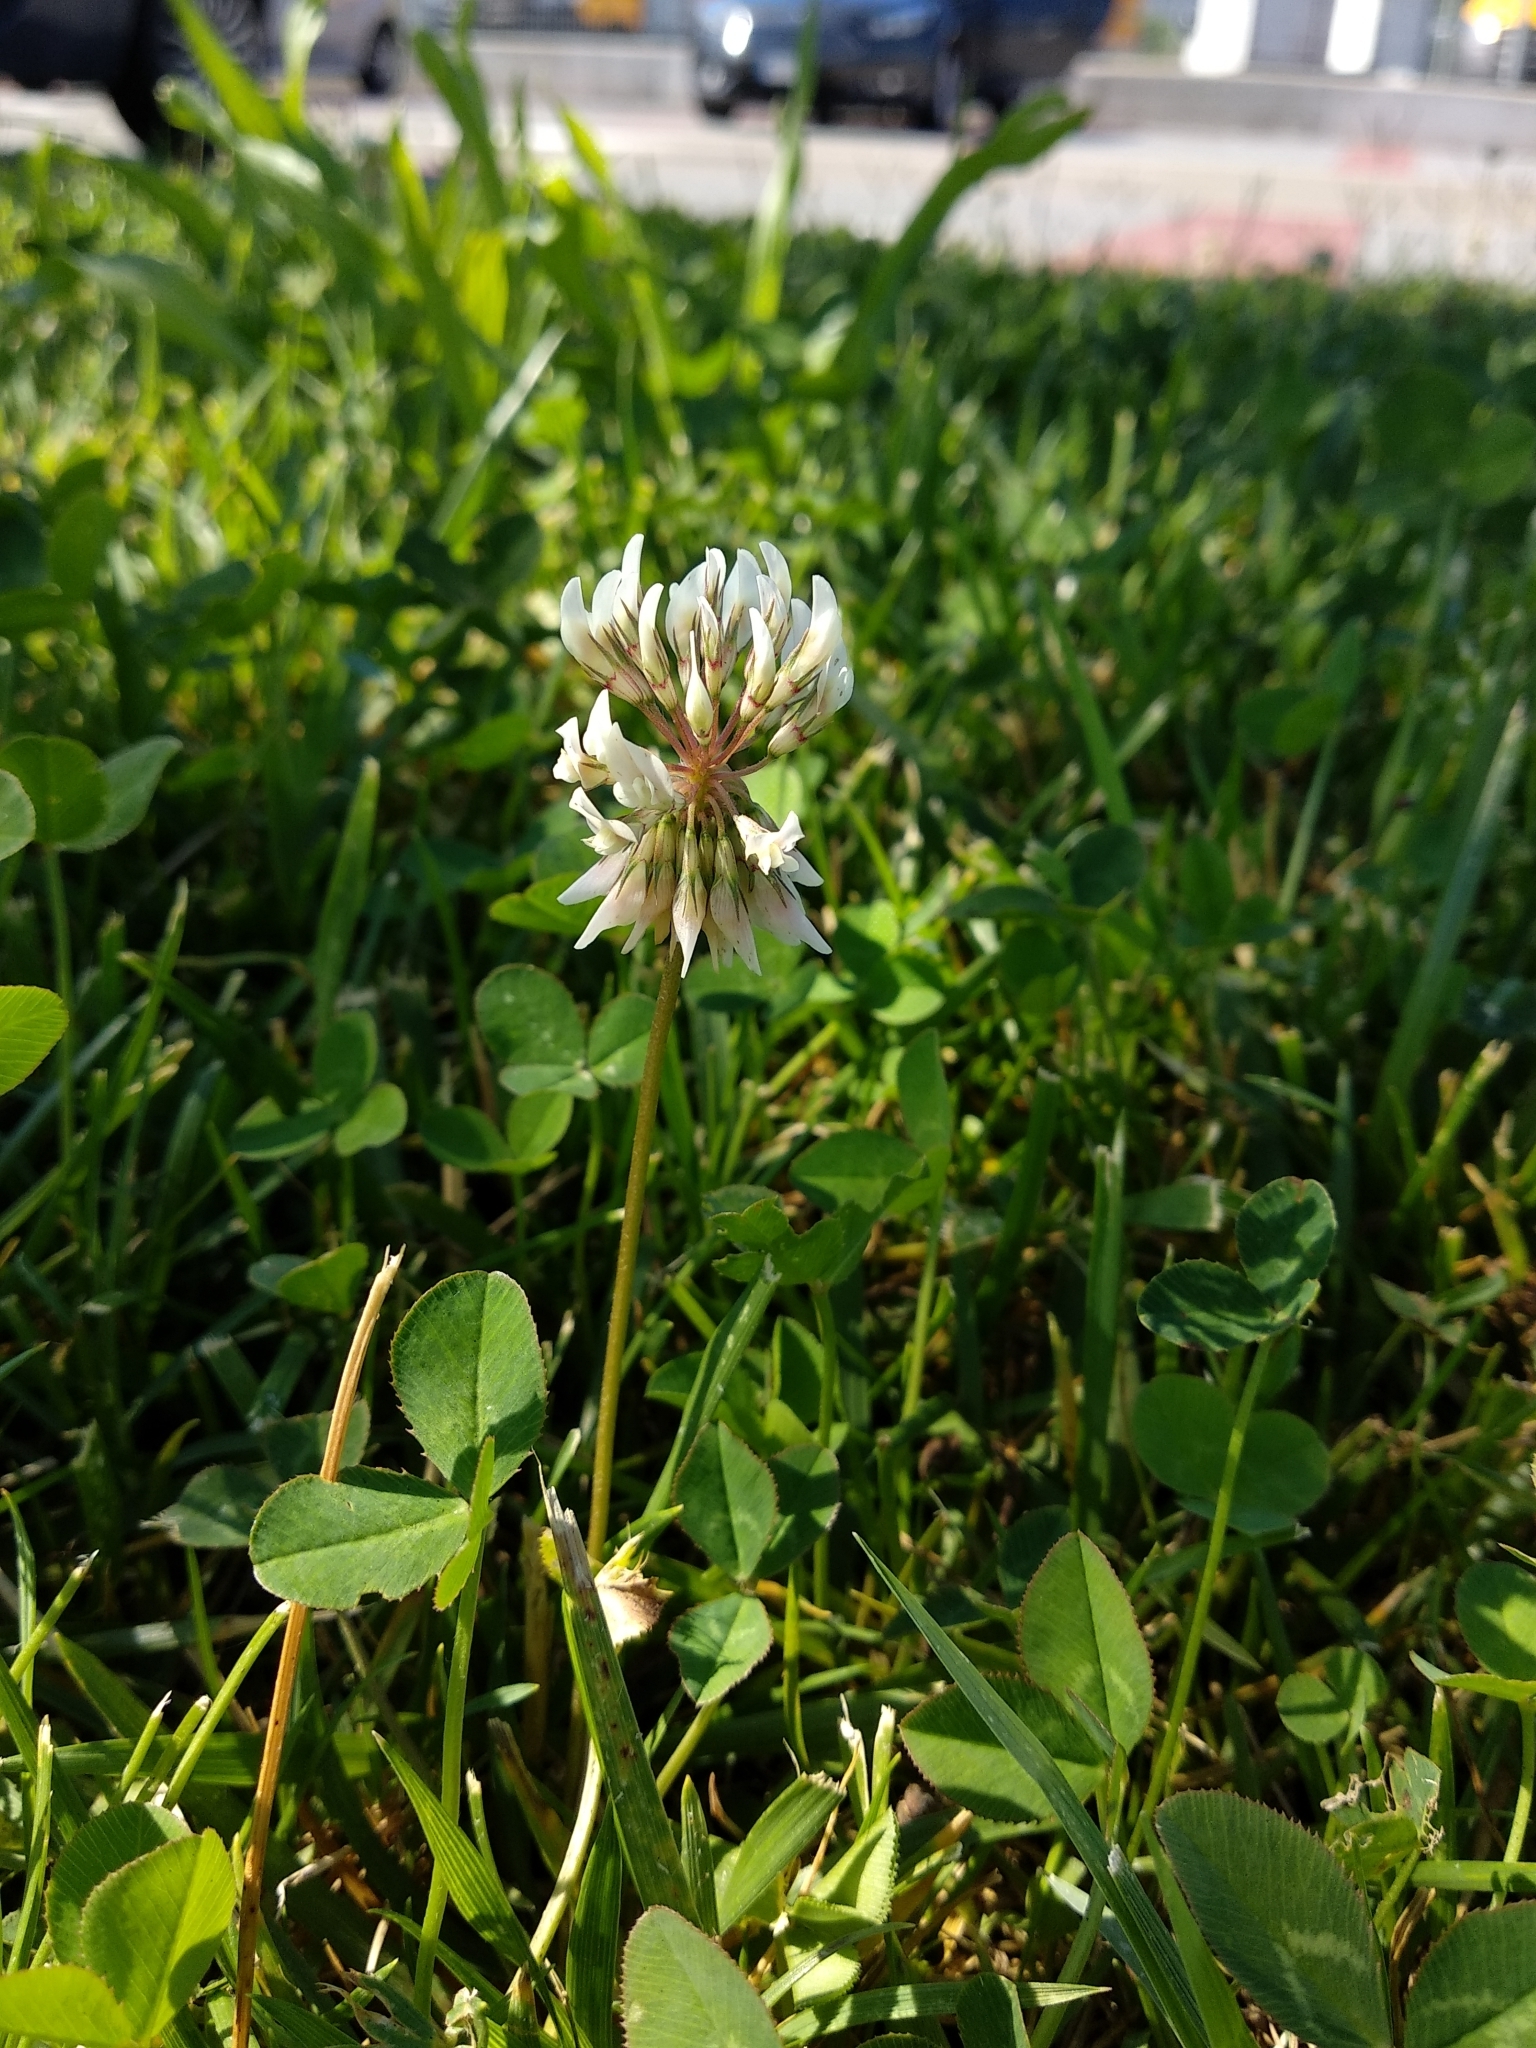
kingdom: Plantae
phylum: Tracheophyta
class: Magnoliopsida
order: Fabales
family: Fabaceae
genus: Trifolium
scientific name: Trifolium repens
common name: White clover
